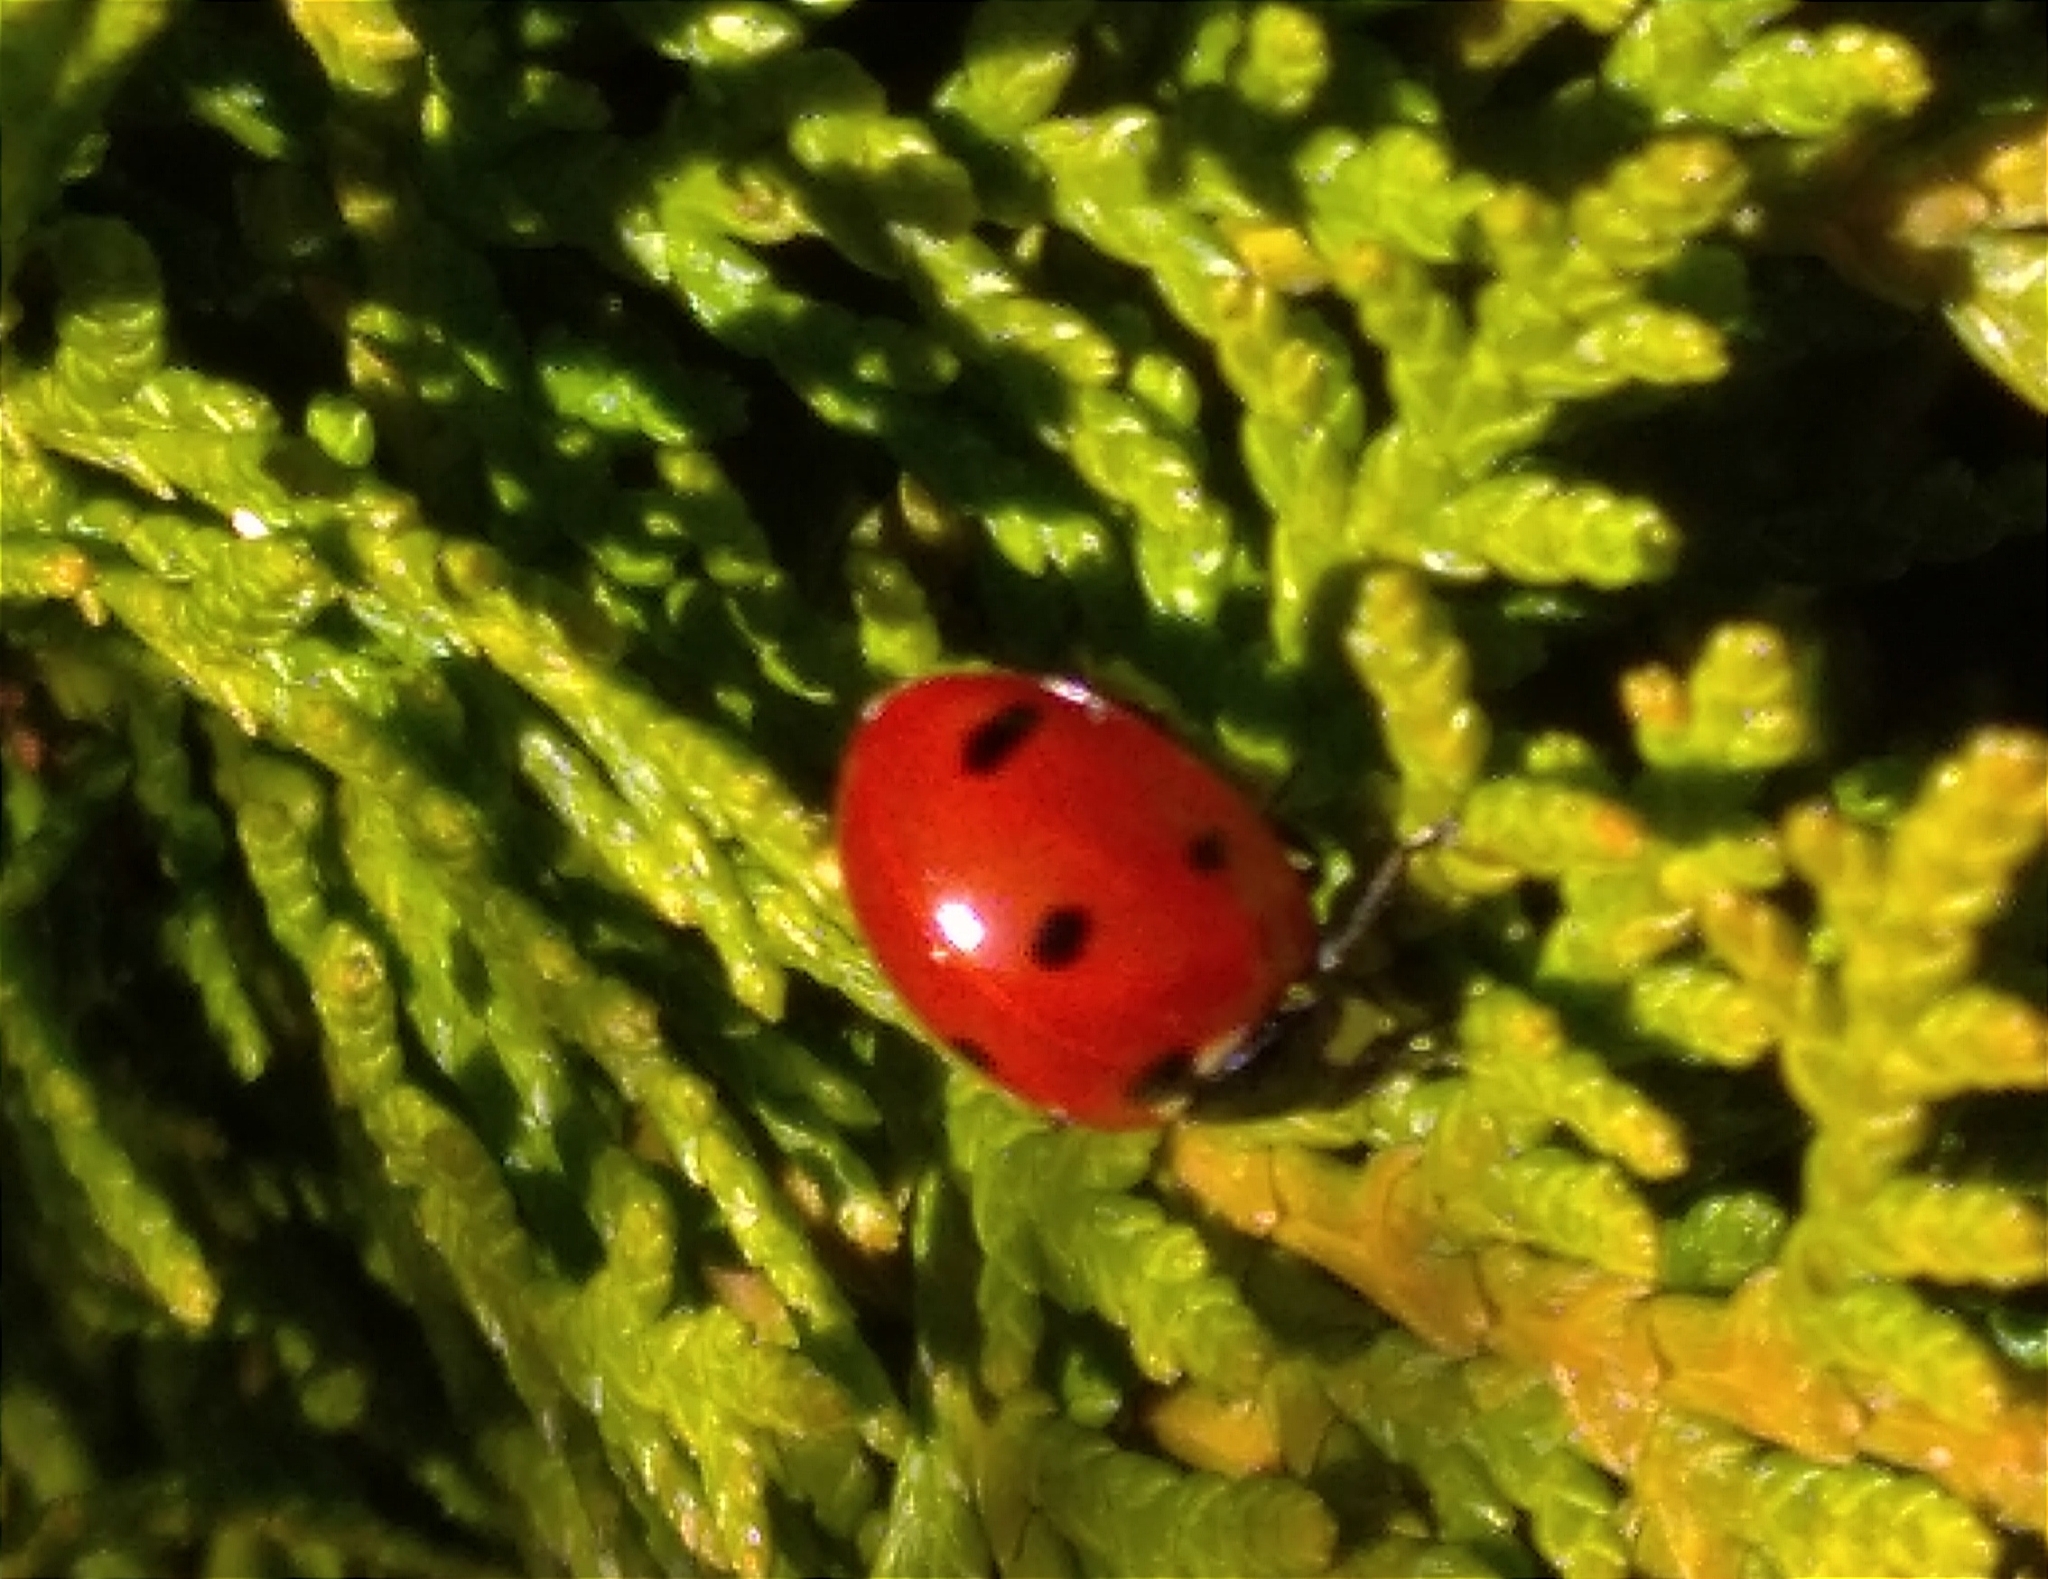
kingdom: Animalia
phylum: Arthropoda
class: Insecta
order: Coleoptera
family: Coccinellidae
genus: Coccinella
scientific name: Coccinella septempunctata
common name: Sevenspotted lady beetle
